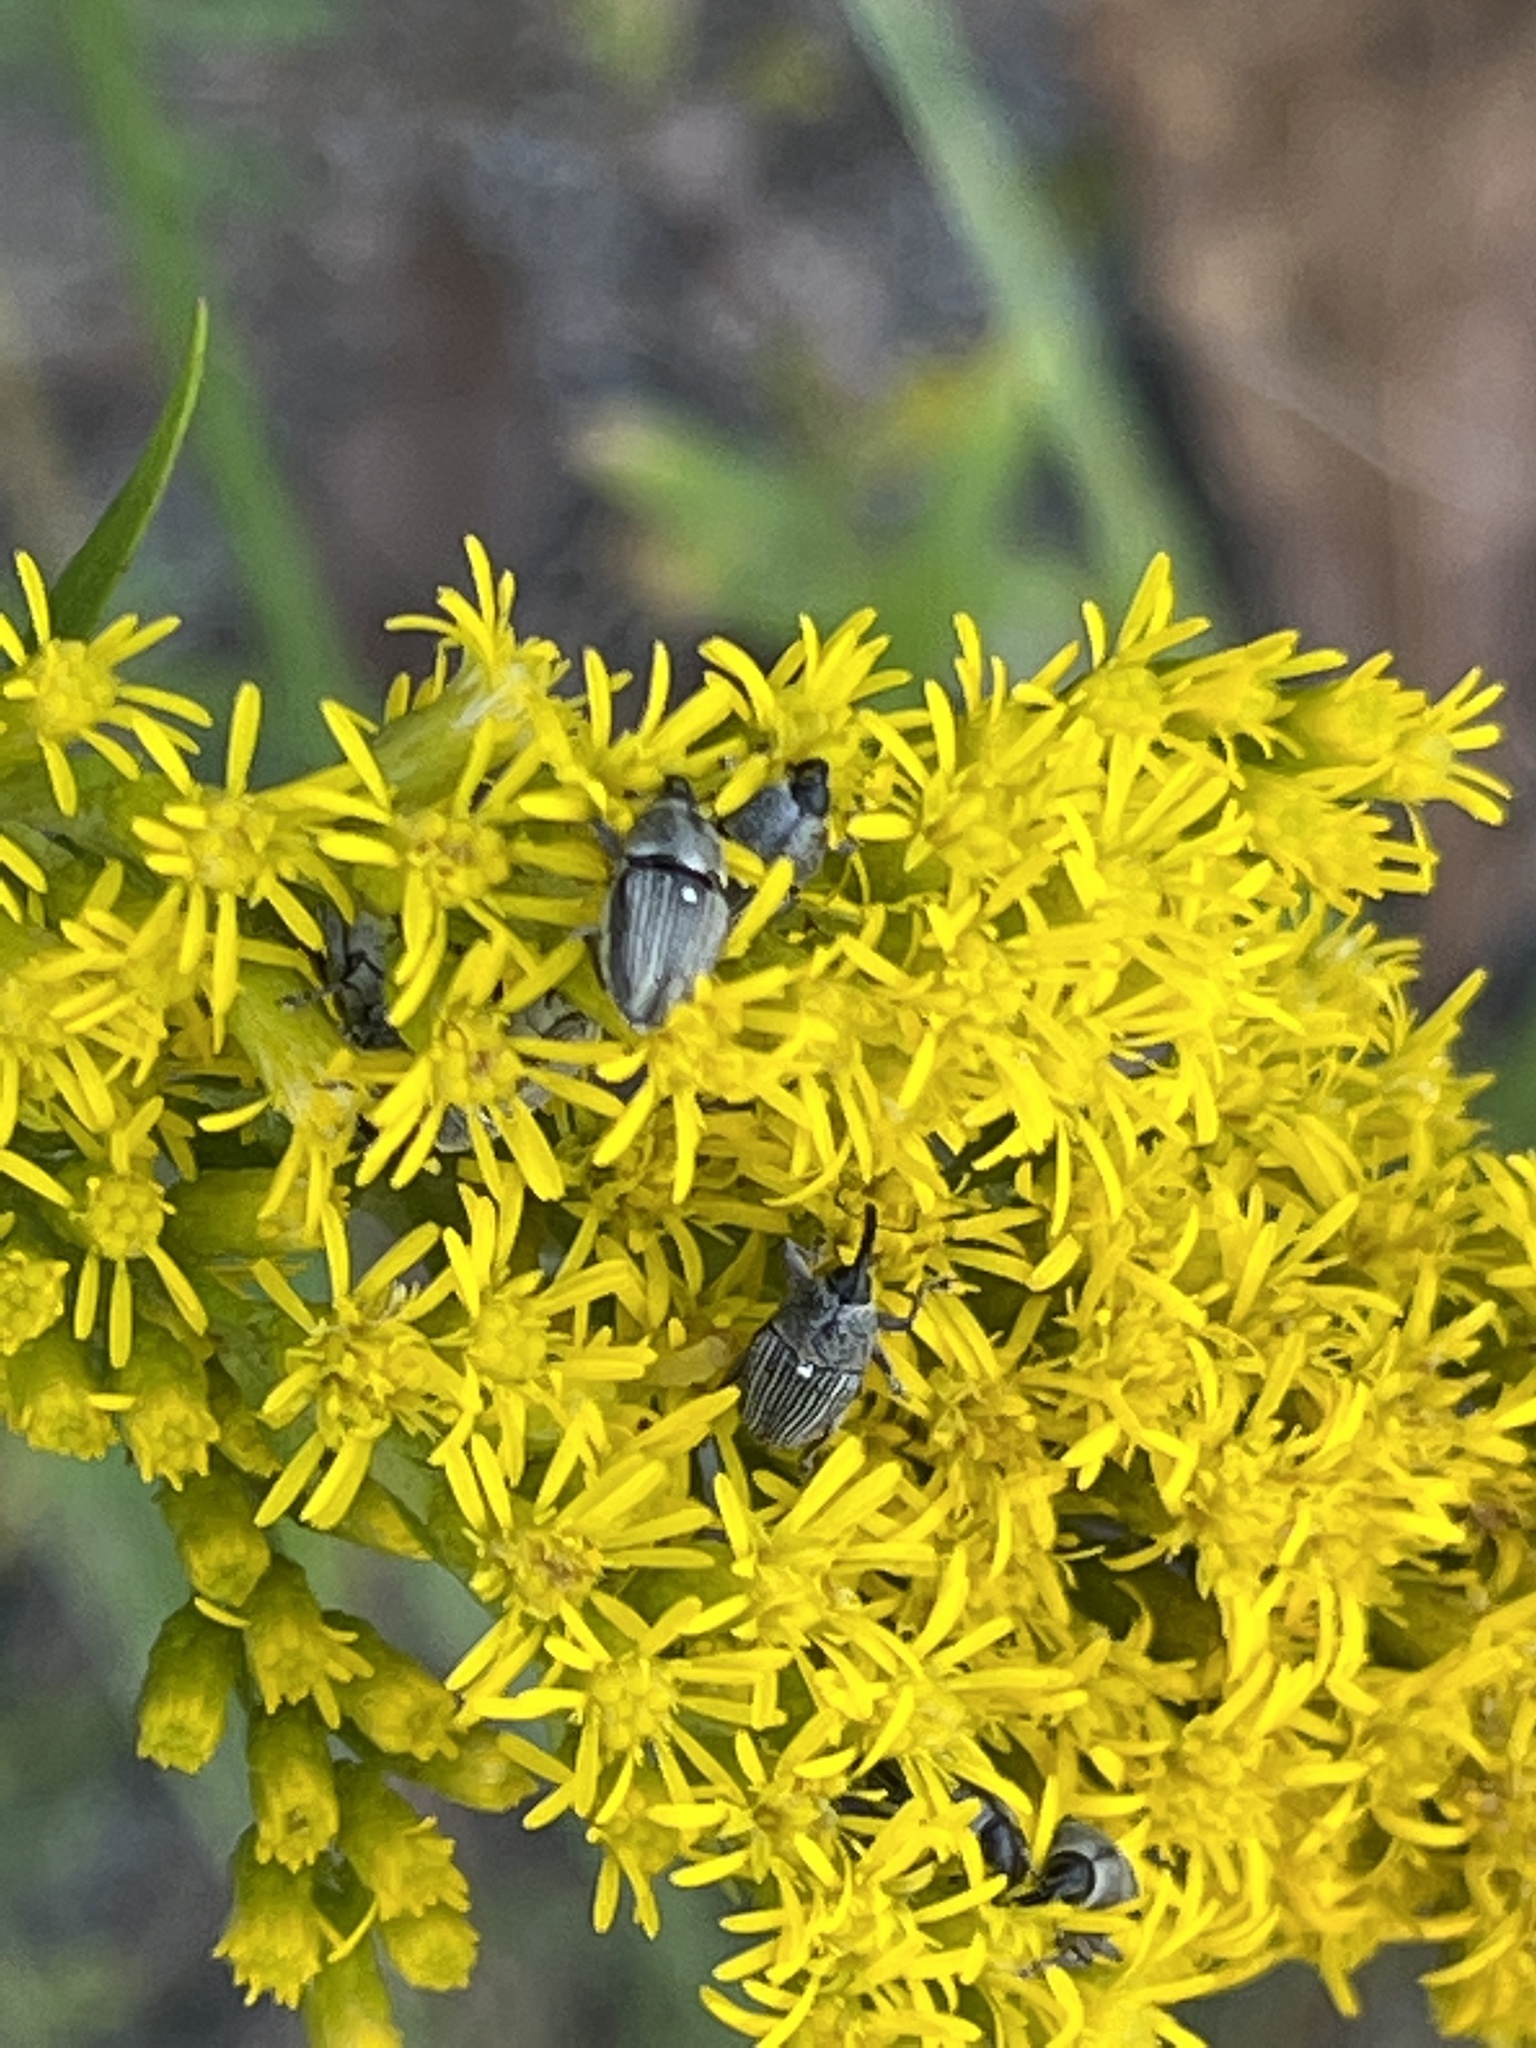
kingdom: Animalia
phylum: Arthropoda
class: Insecta
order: Coleoptera
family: Curculionidae
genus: Odontocorynus
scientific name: Odontocorynus larvatus
